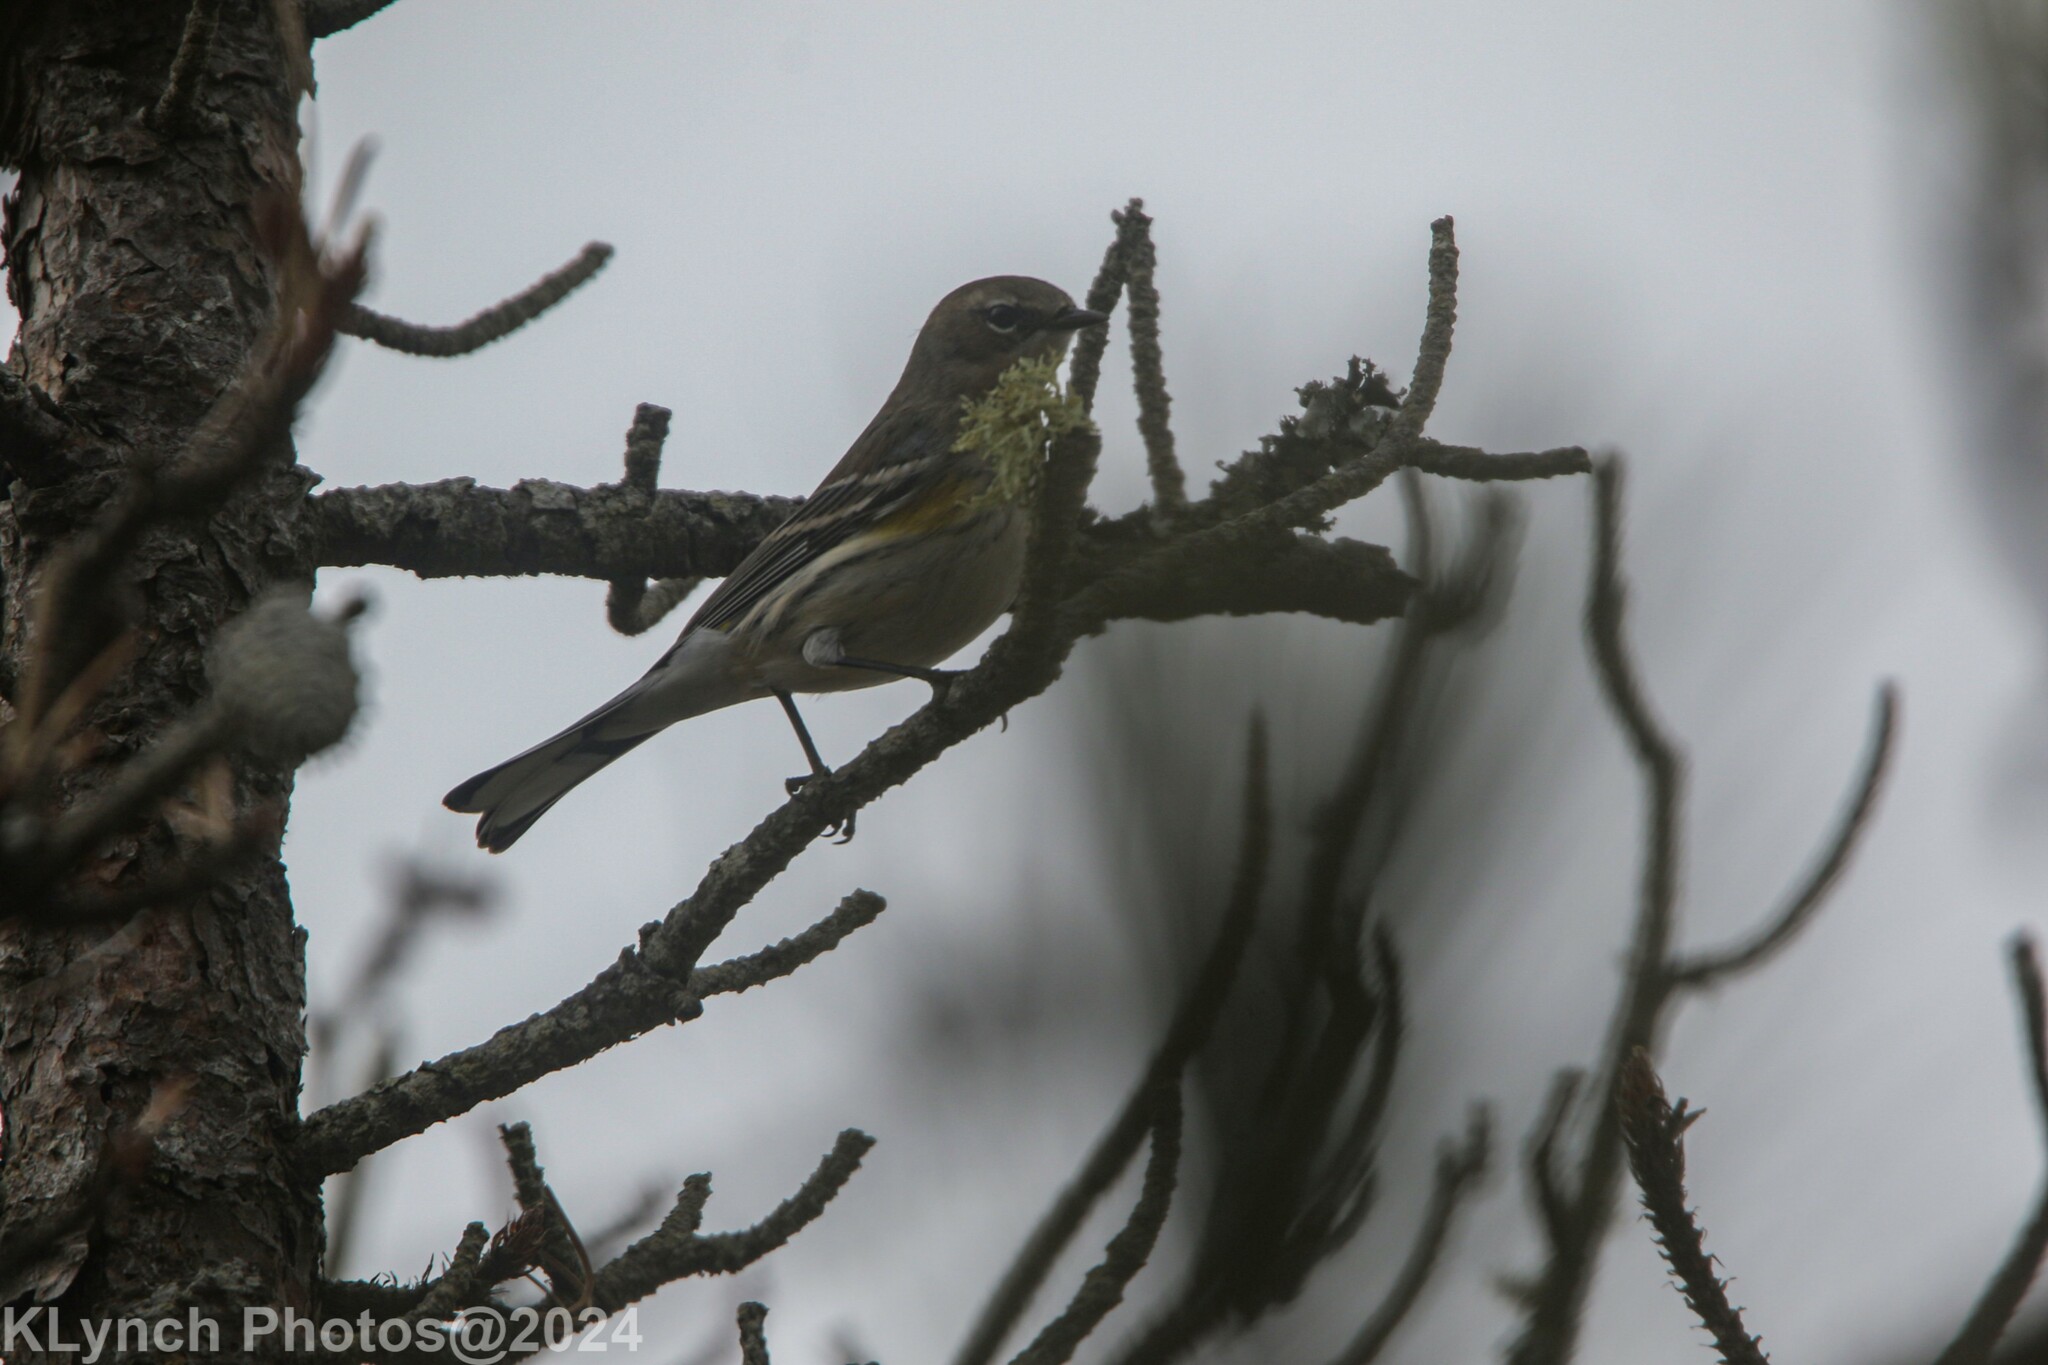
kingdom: Animalia
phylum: Chordata
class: Aves
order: Passeriformes
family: Parulidae
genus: Setophaga
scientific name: Setophaga coronata
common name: Myrtle warbler
